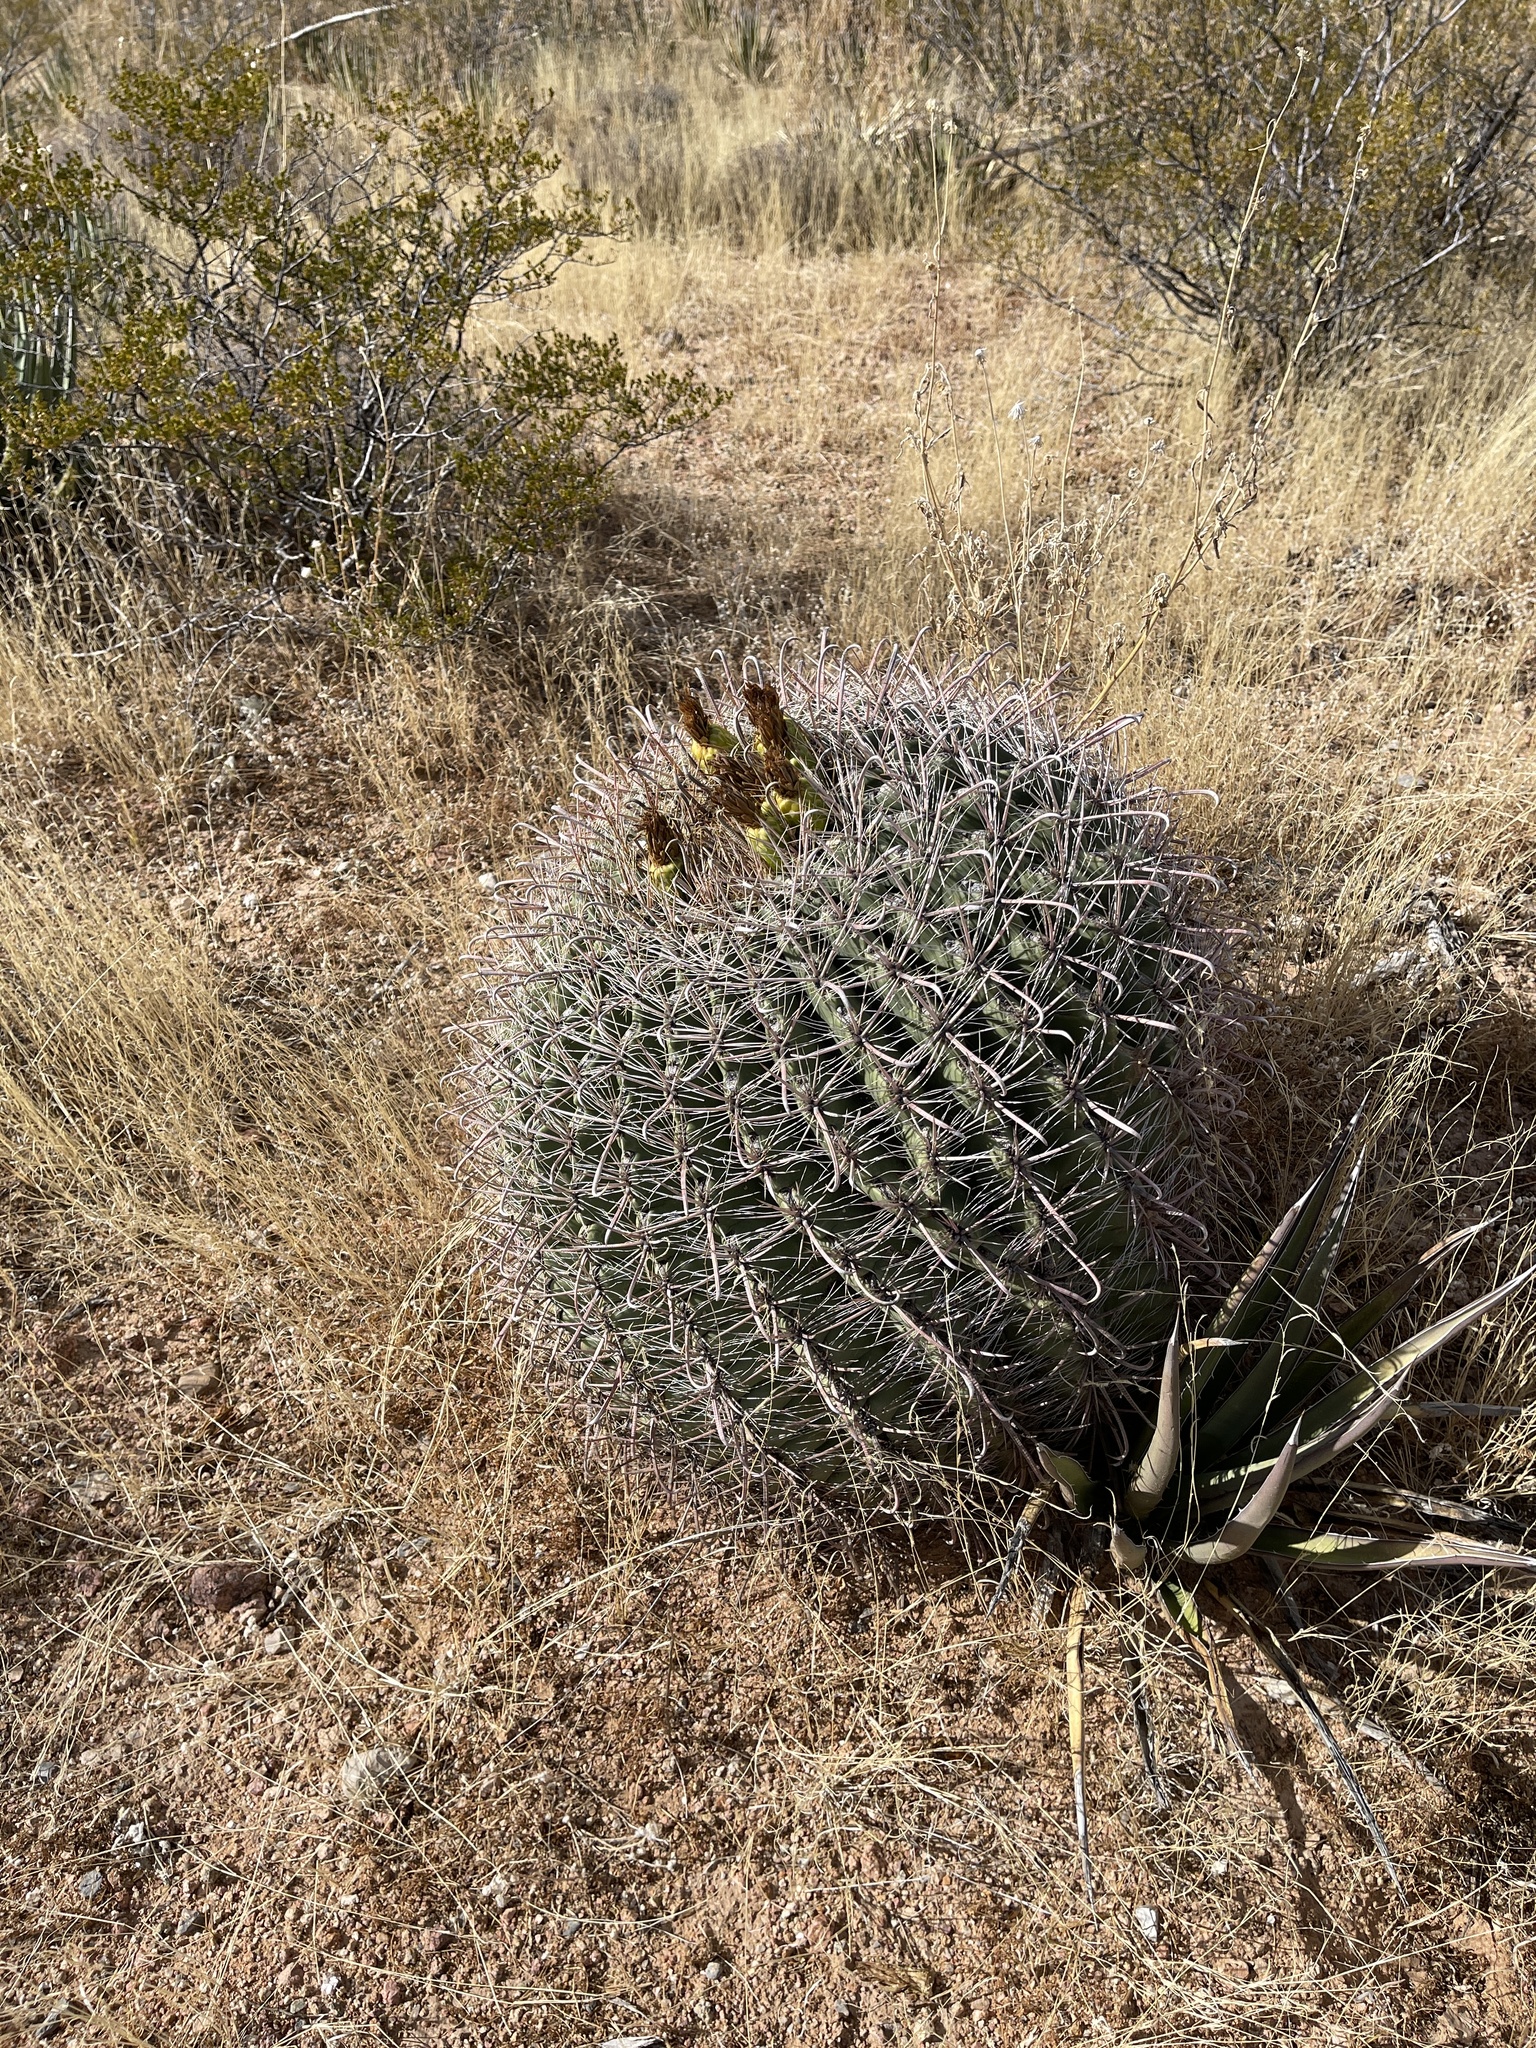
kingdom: Plantae
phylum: Tracheophyta
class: Magnoliopsida
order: Caryophyllales
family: Cactaceae
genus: Ferocactus
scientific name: Ferocactus wislizeni
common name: Candy barrel cactus
